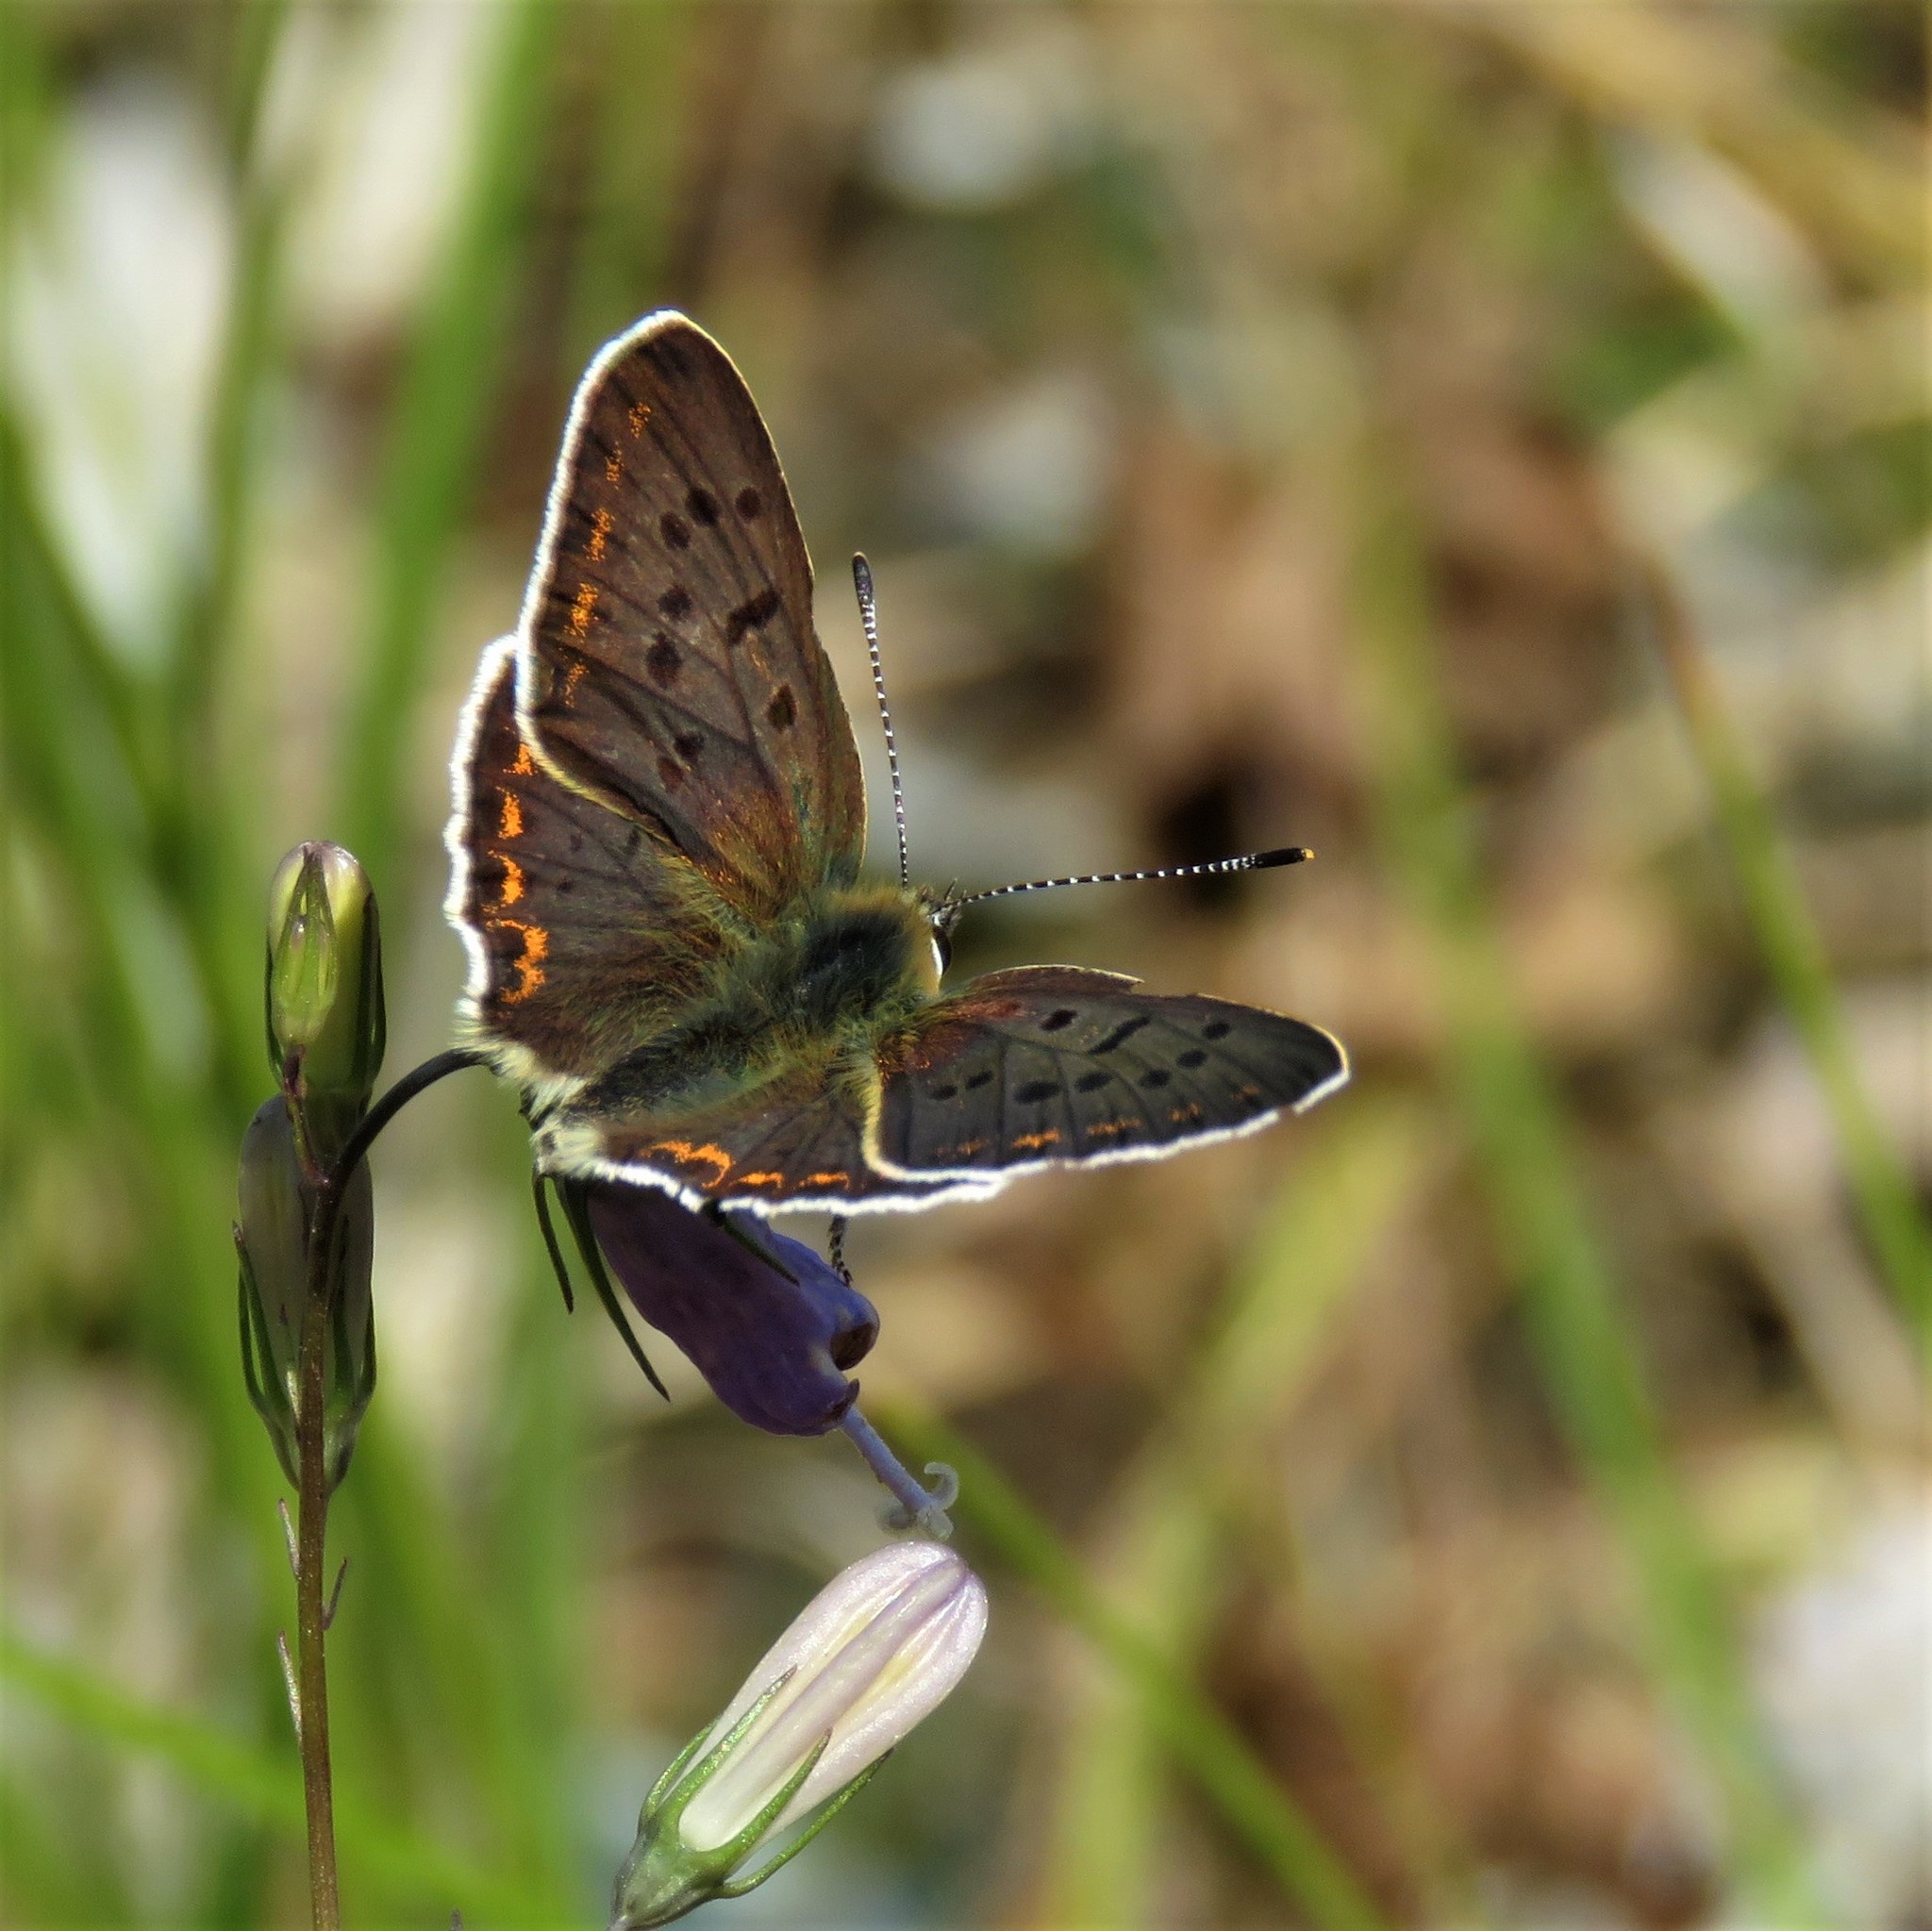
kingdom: Animalia
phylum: Arthropoda
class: Insecta
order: Lepidoptera
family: Lycaenidae
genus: Loweia
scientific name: Loweia tityrus
